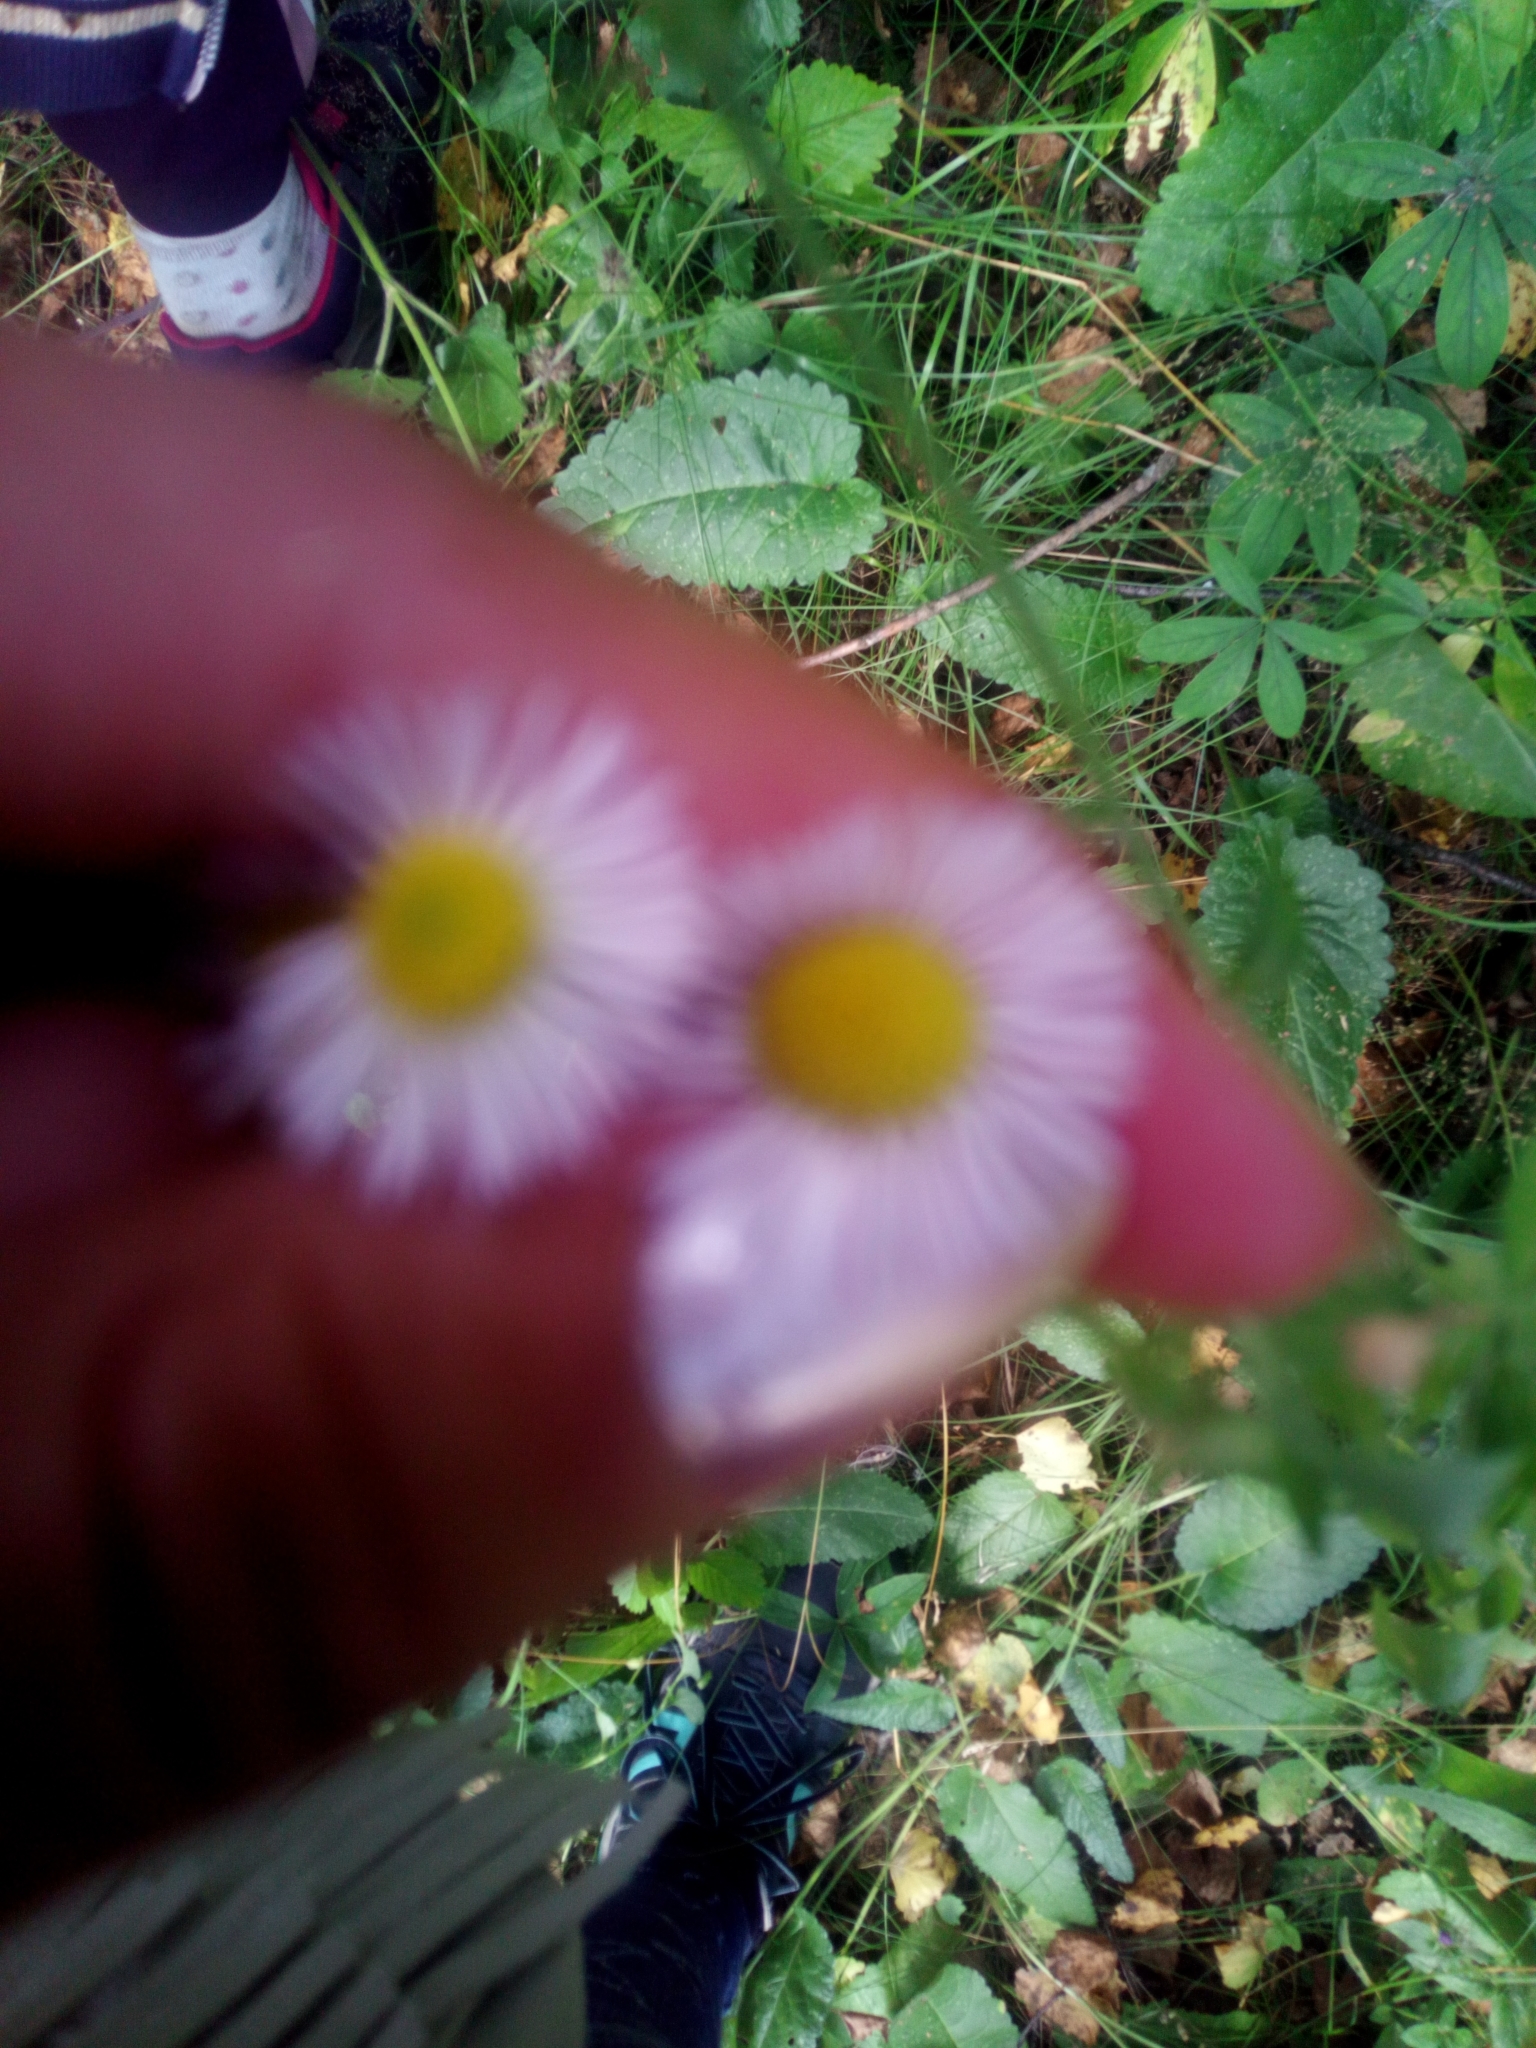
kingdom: Plantae
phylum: Tracheophyta
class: Magnoliopsida
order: Asterales
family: Asteraceae
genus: Erigeron
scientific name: Erigeron annuus
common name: Tall fleabane
